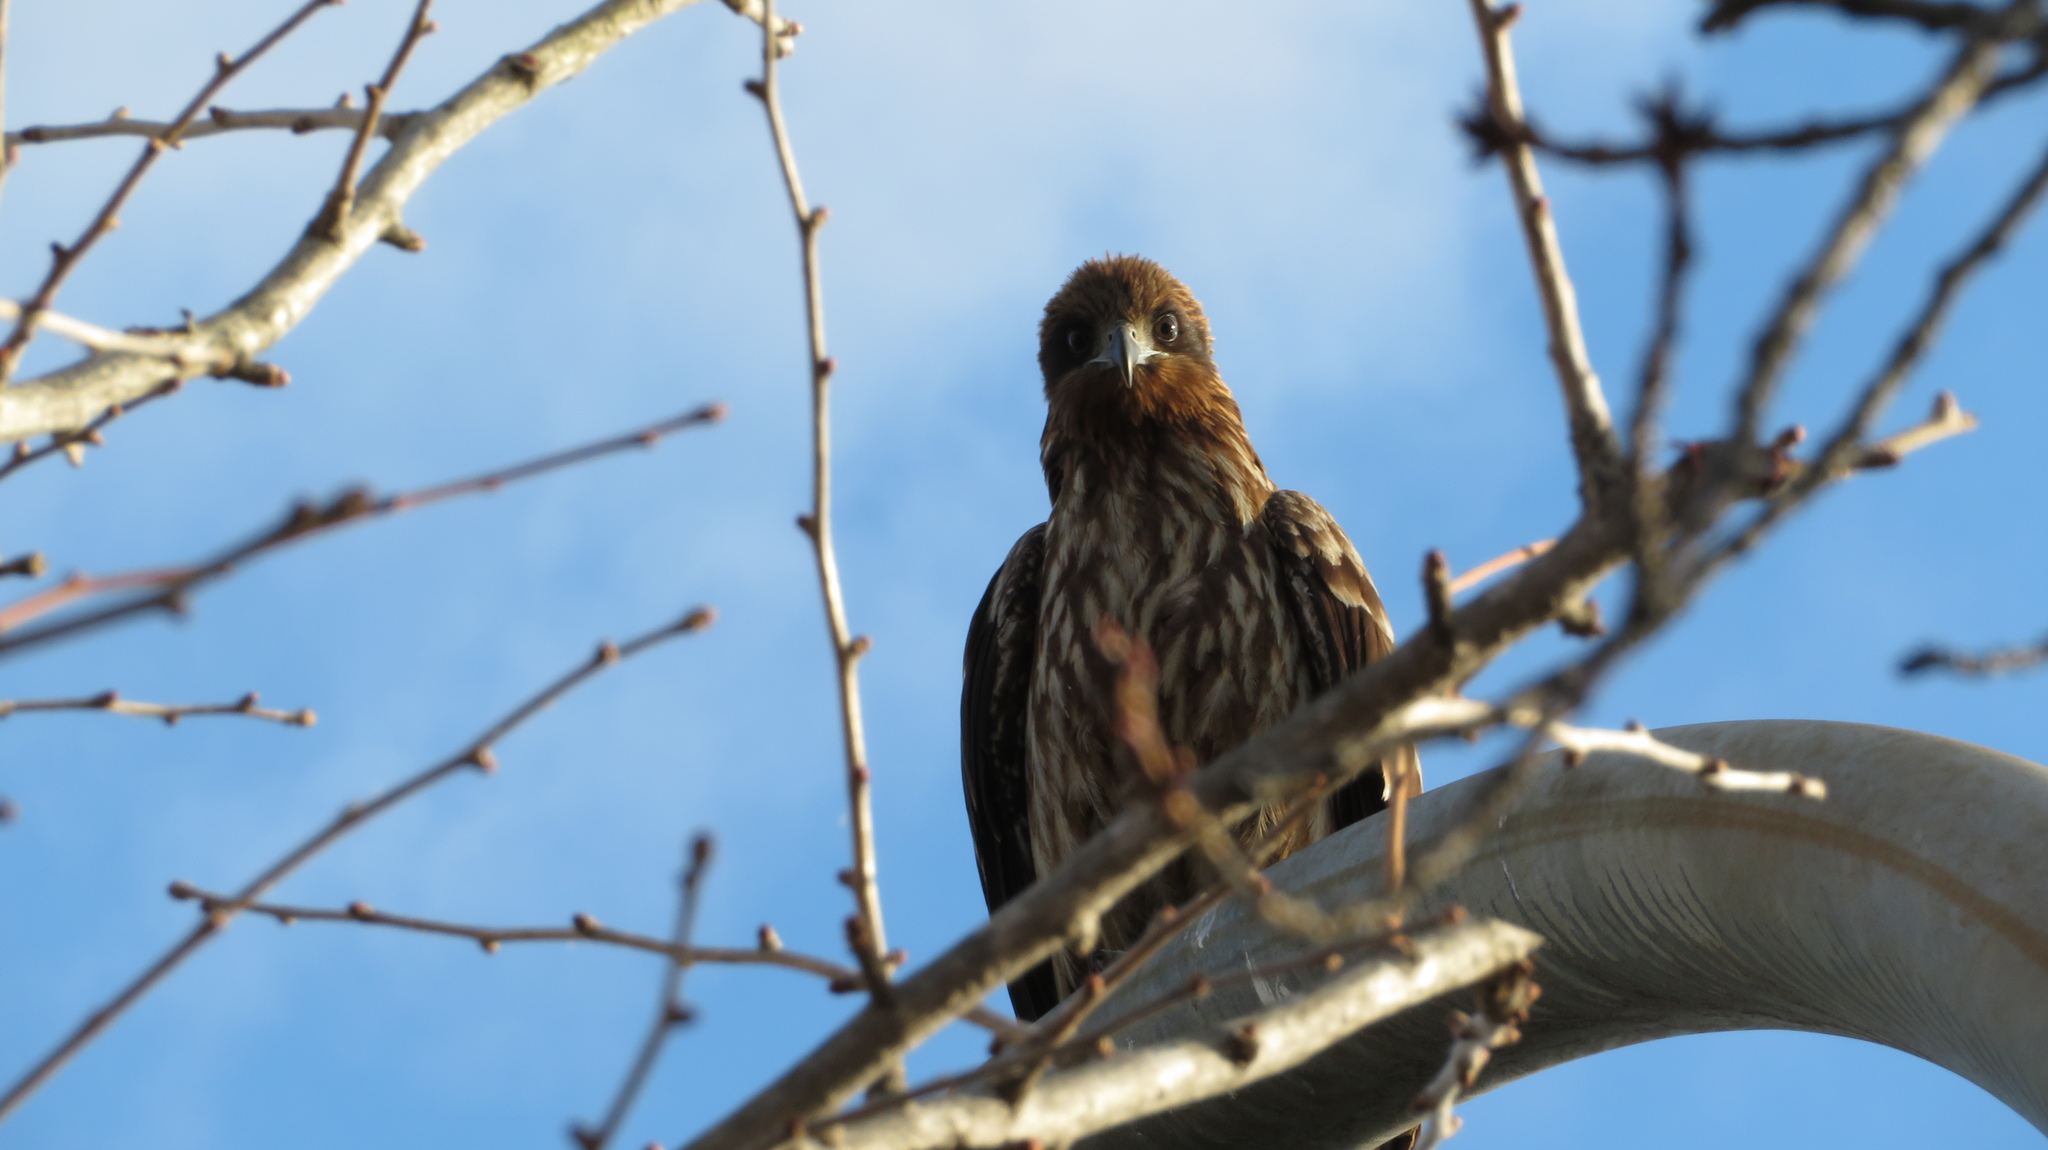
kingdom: Animalia
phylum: Chordata
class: Aves
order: Accipitriformes
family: Accipitridae
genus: Milvus
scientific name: Milvus migrans
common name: Black kite
